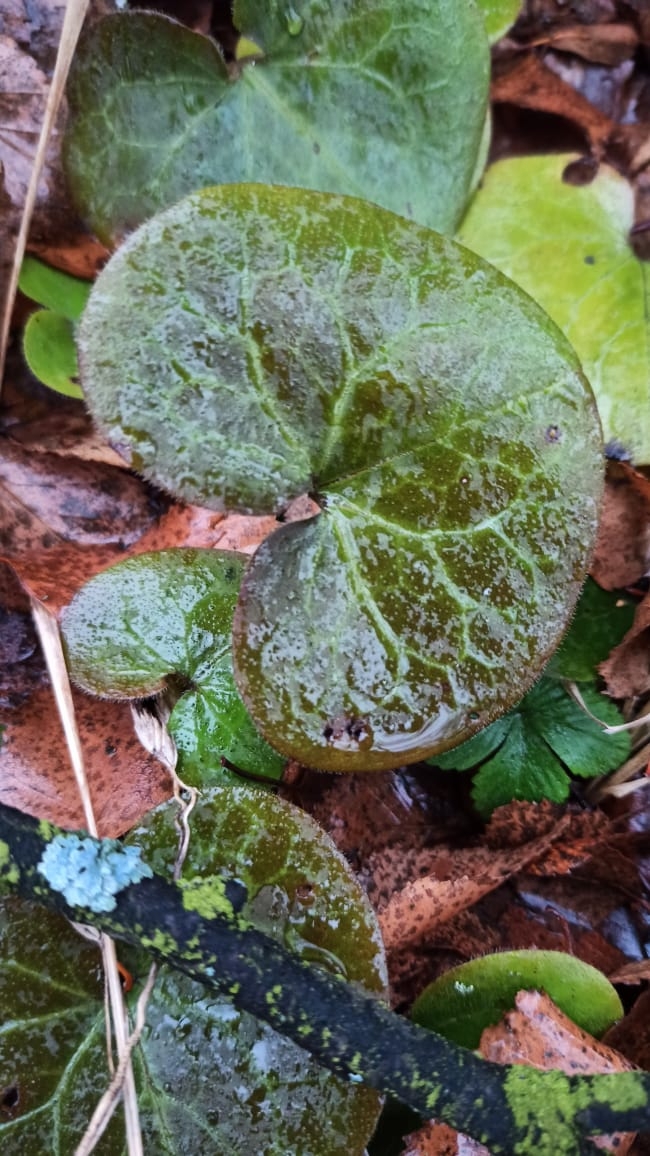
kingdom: Plantae
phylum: Tracheophyta
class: Magnoliopsida
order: Piperales
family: Aristolochiaceae
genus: Asarum
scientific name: Asarum europaeum
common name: Asarabacca
